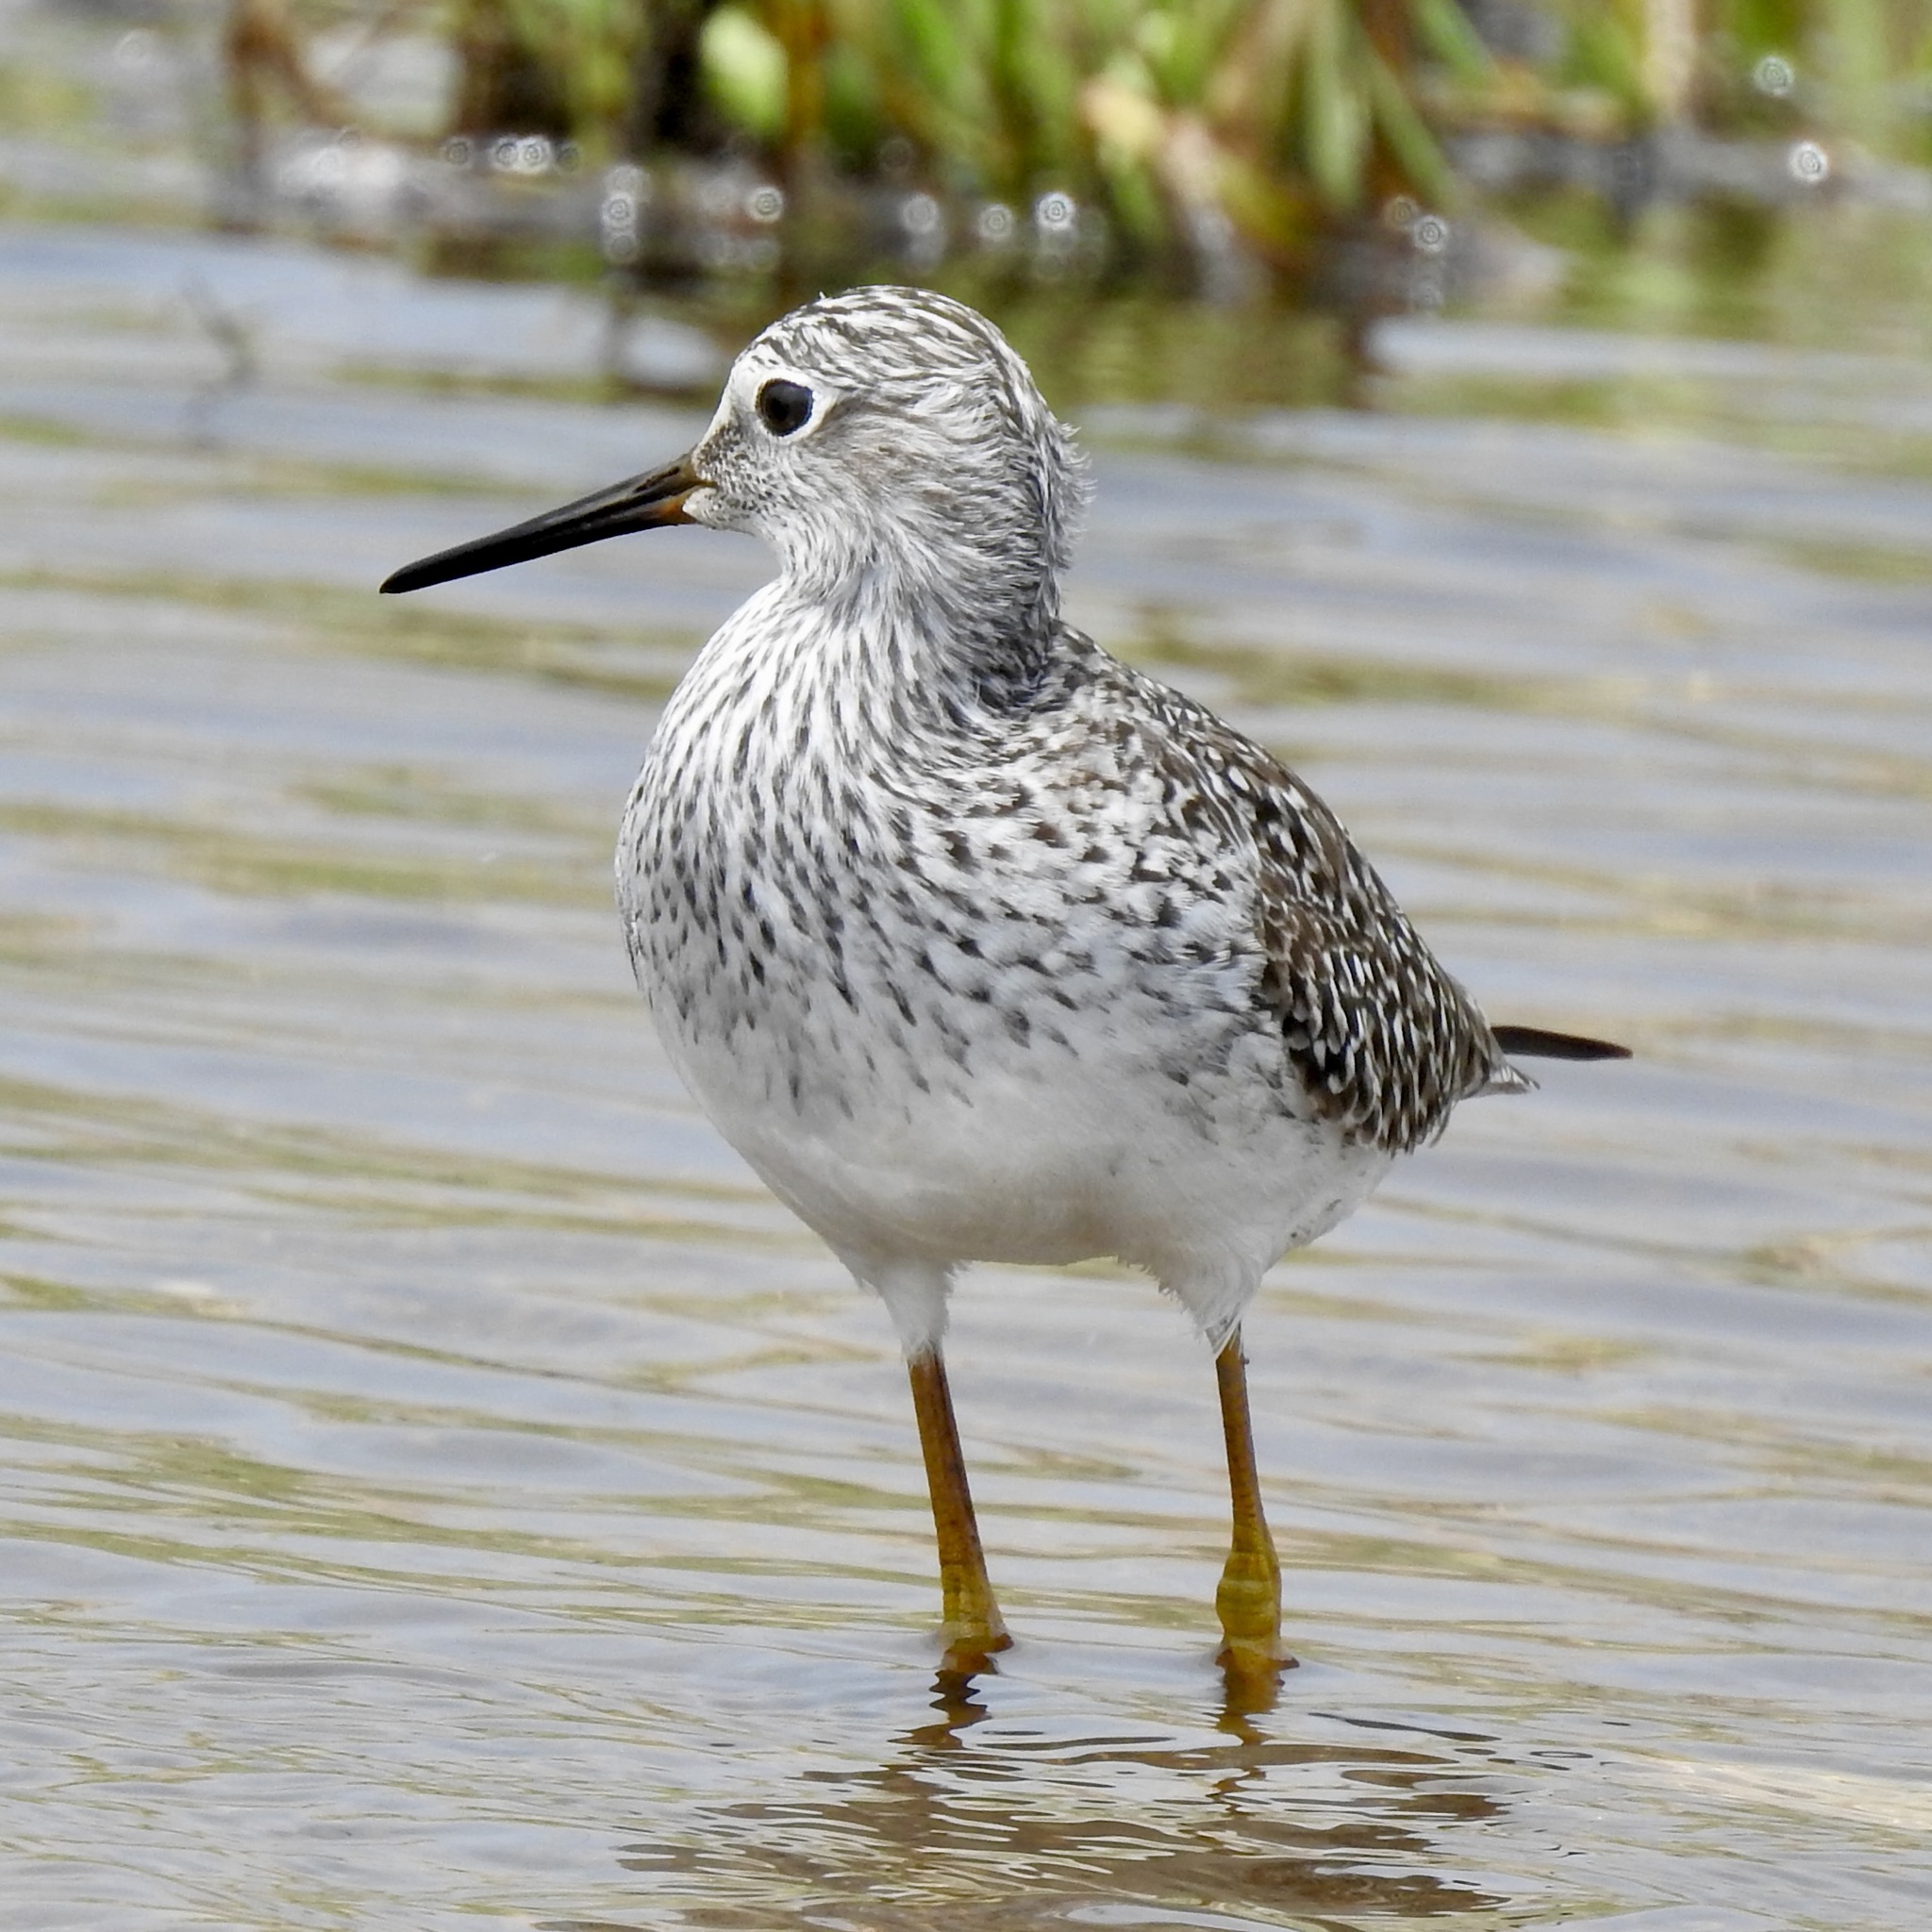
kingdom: Animalia
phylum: Chordata
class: Aves
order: Charadriiformes
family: Scolopacidae
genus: Tringa
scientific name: Tringa flavipes
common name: Lesser yellowlegs
